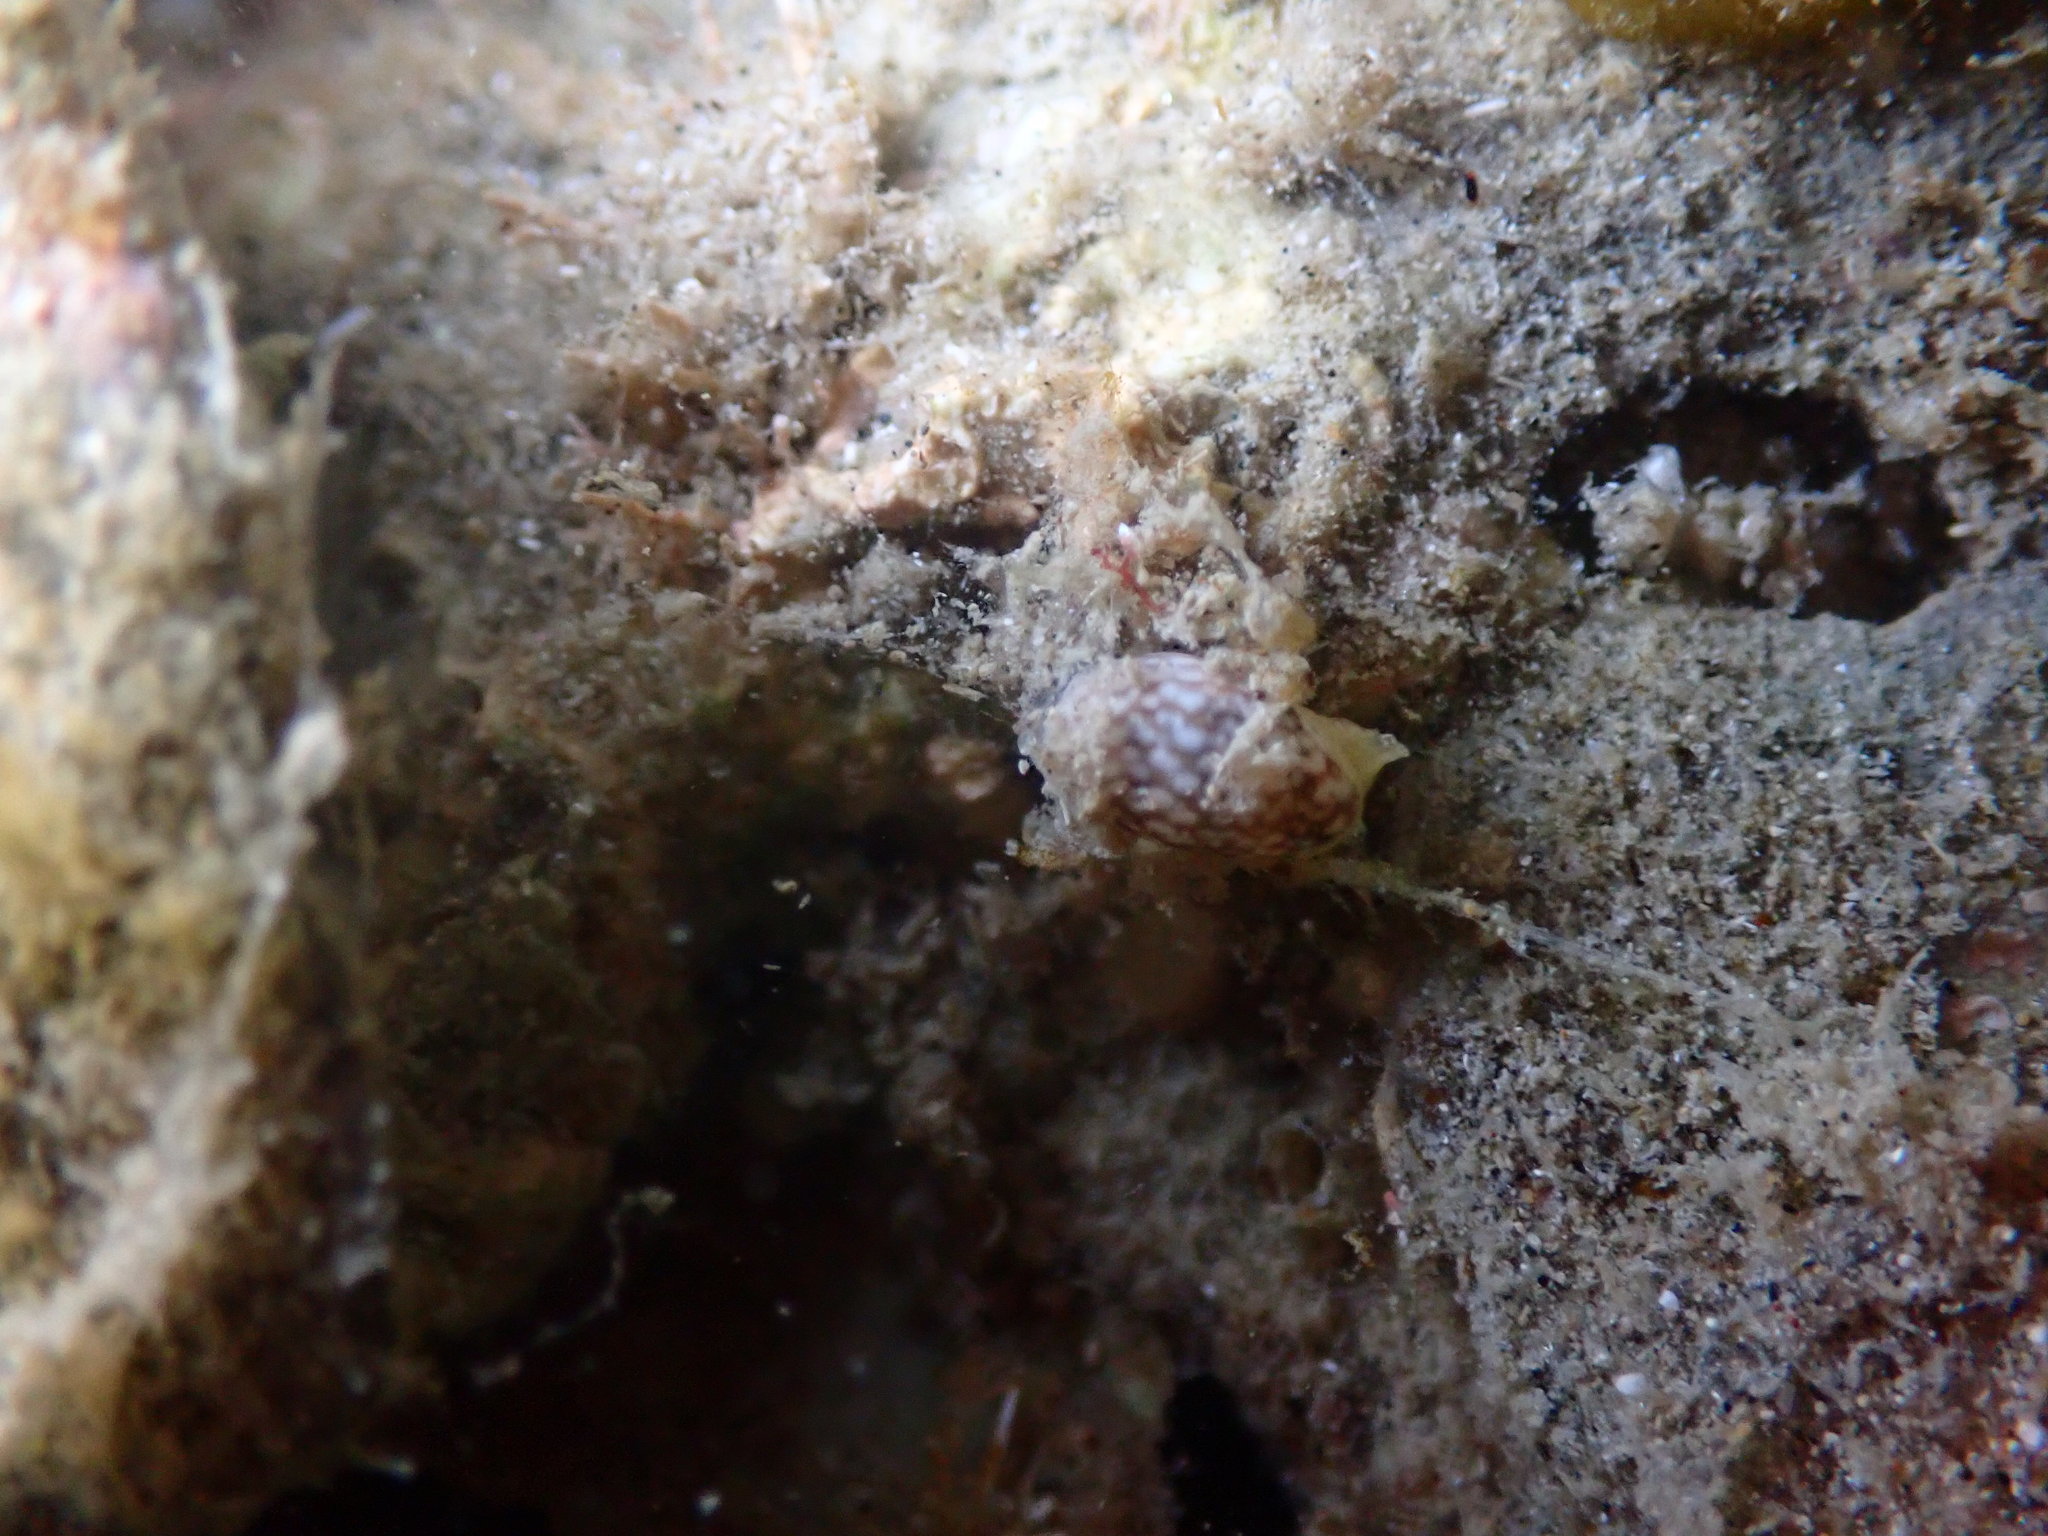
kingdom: Animalia
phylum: Mollusca
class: Gastropoda
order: Cephalaspidea
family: Bullidae
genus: Bulla
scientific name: Bulla quoyii
